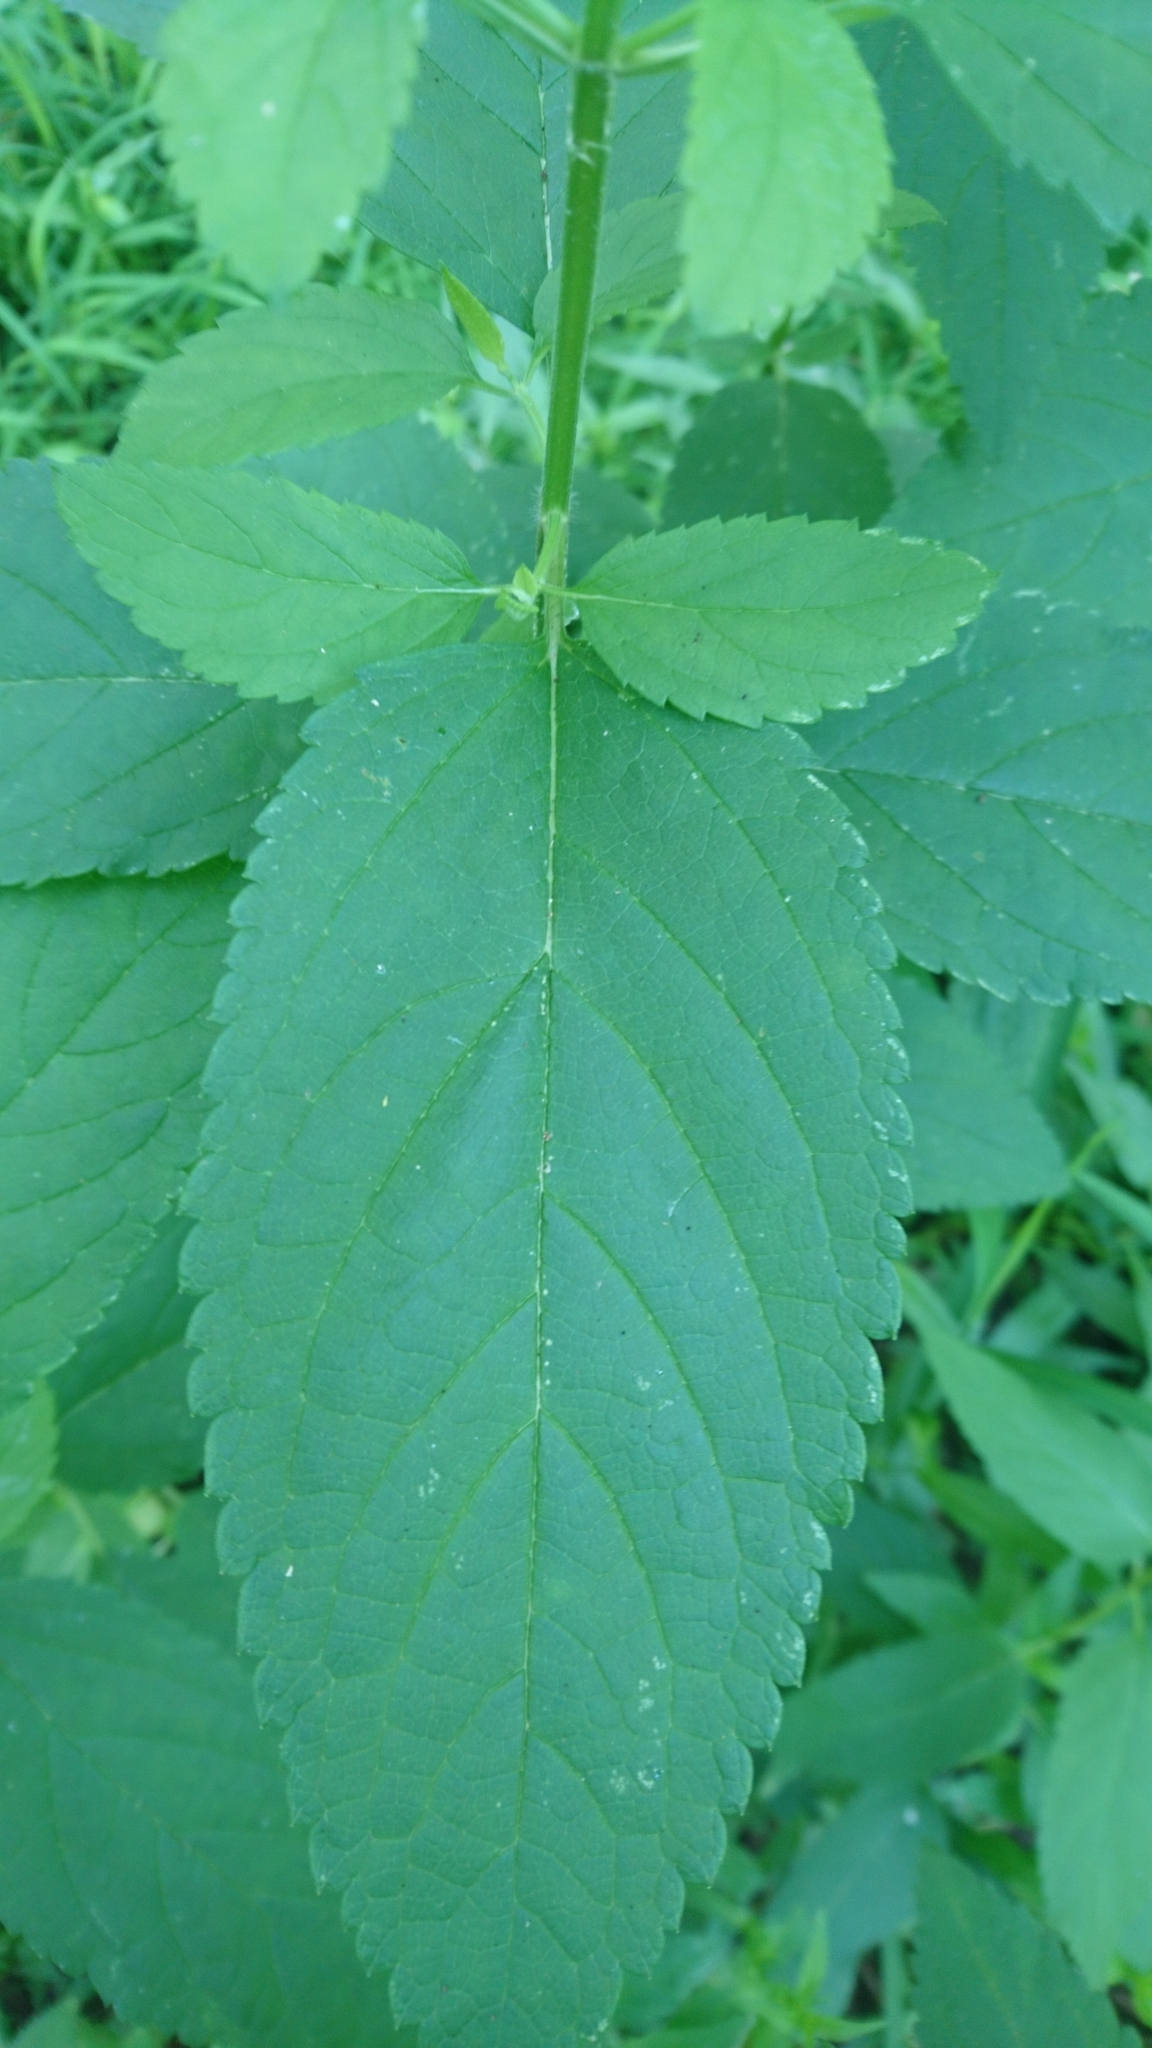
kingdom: Plantae
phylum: Tracheophyta
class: Magnoliopsida
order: Lamiales
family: Lamiaceae
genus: Teucrium
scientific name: Teucrium canadense
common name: American germander
